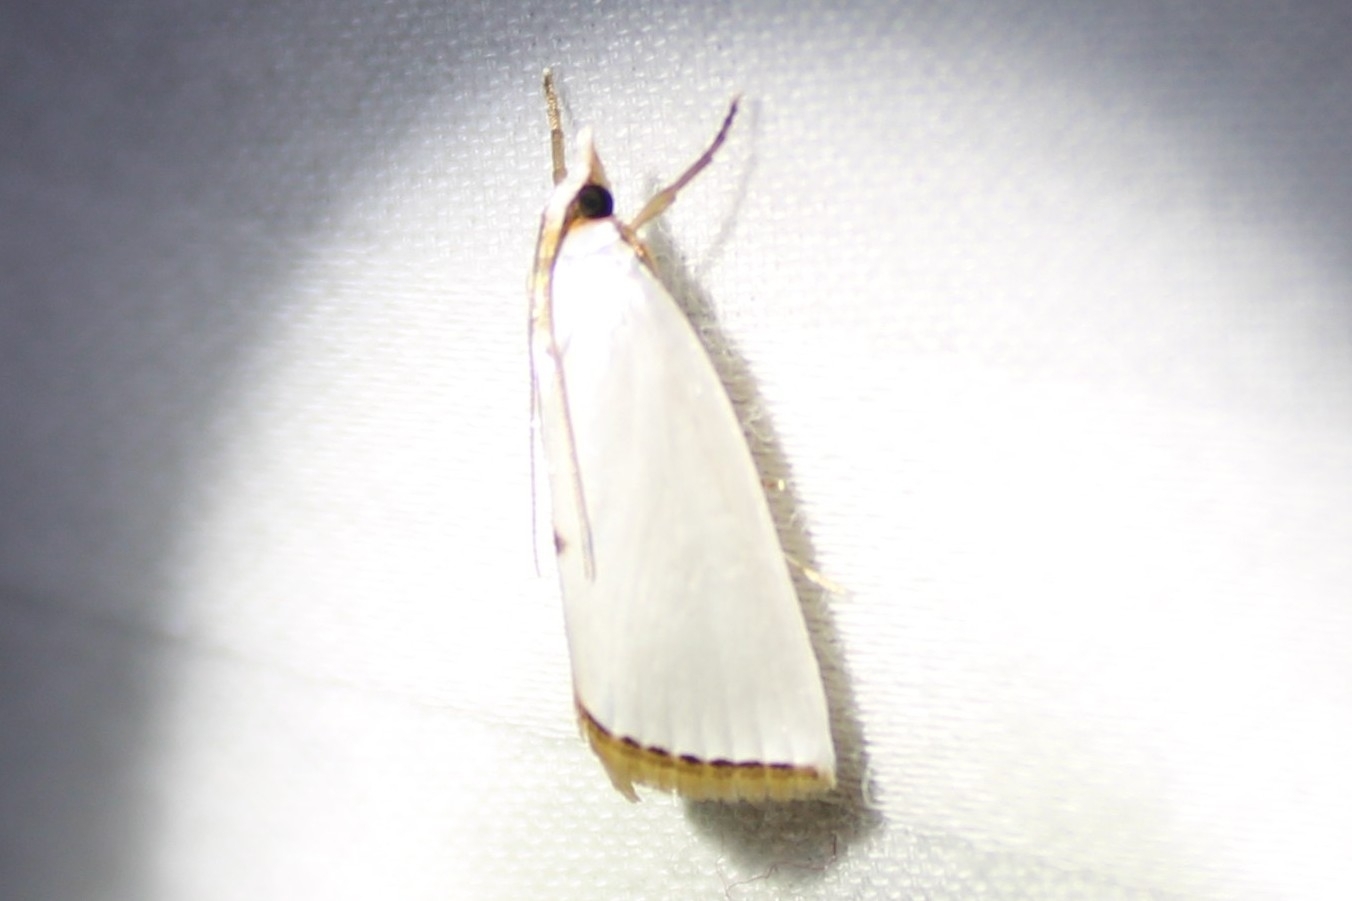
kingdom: Animalia
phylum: Arthropoda
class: Insecta
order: Lepidoptera
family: Crambidae
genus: Argyria
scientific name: Argyria nivalis
